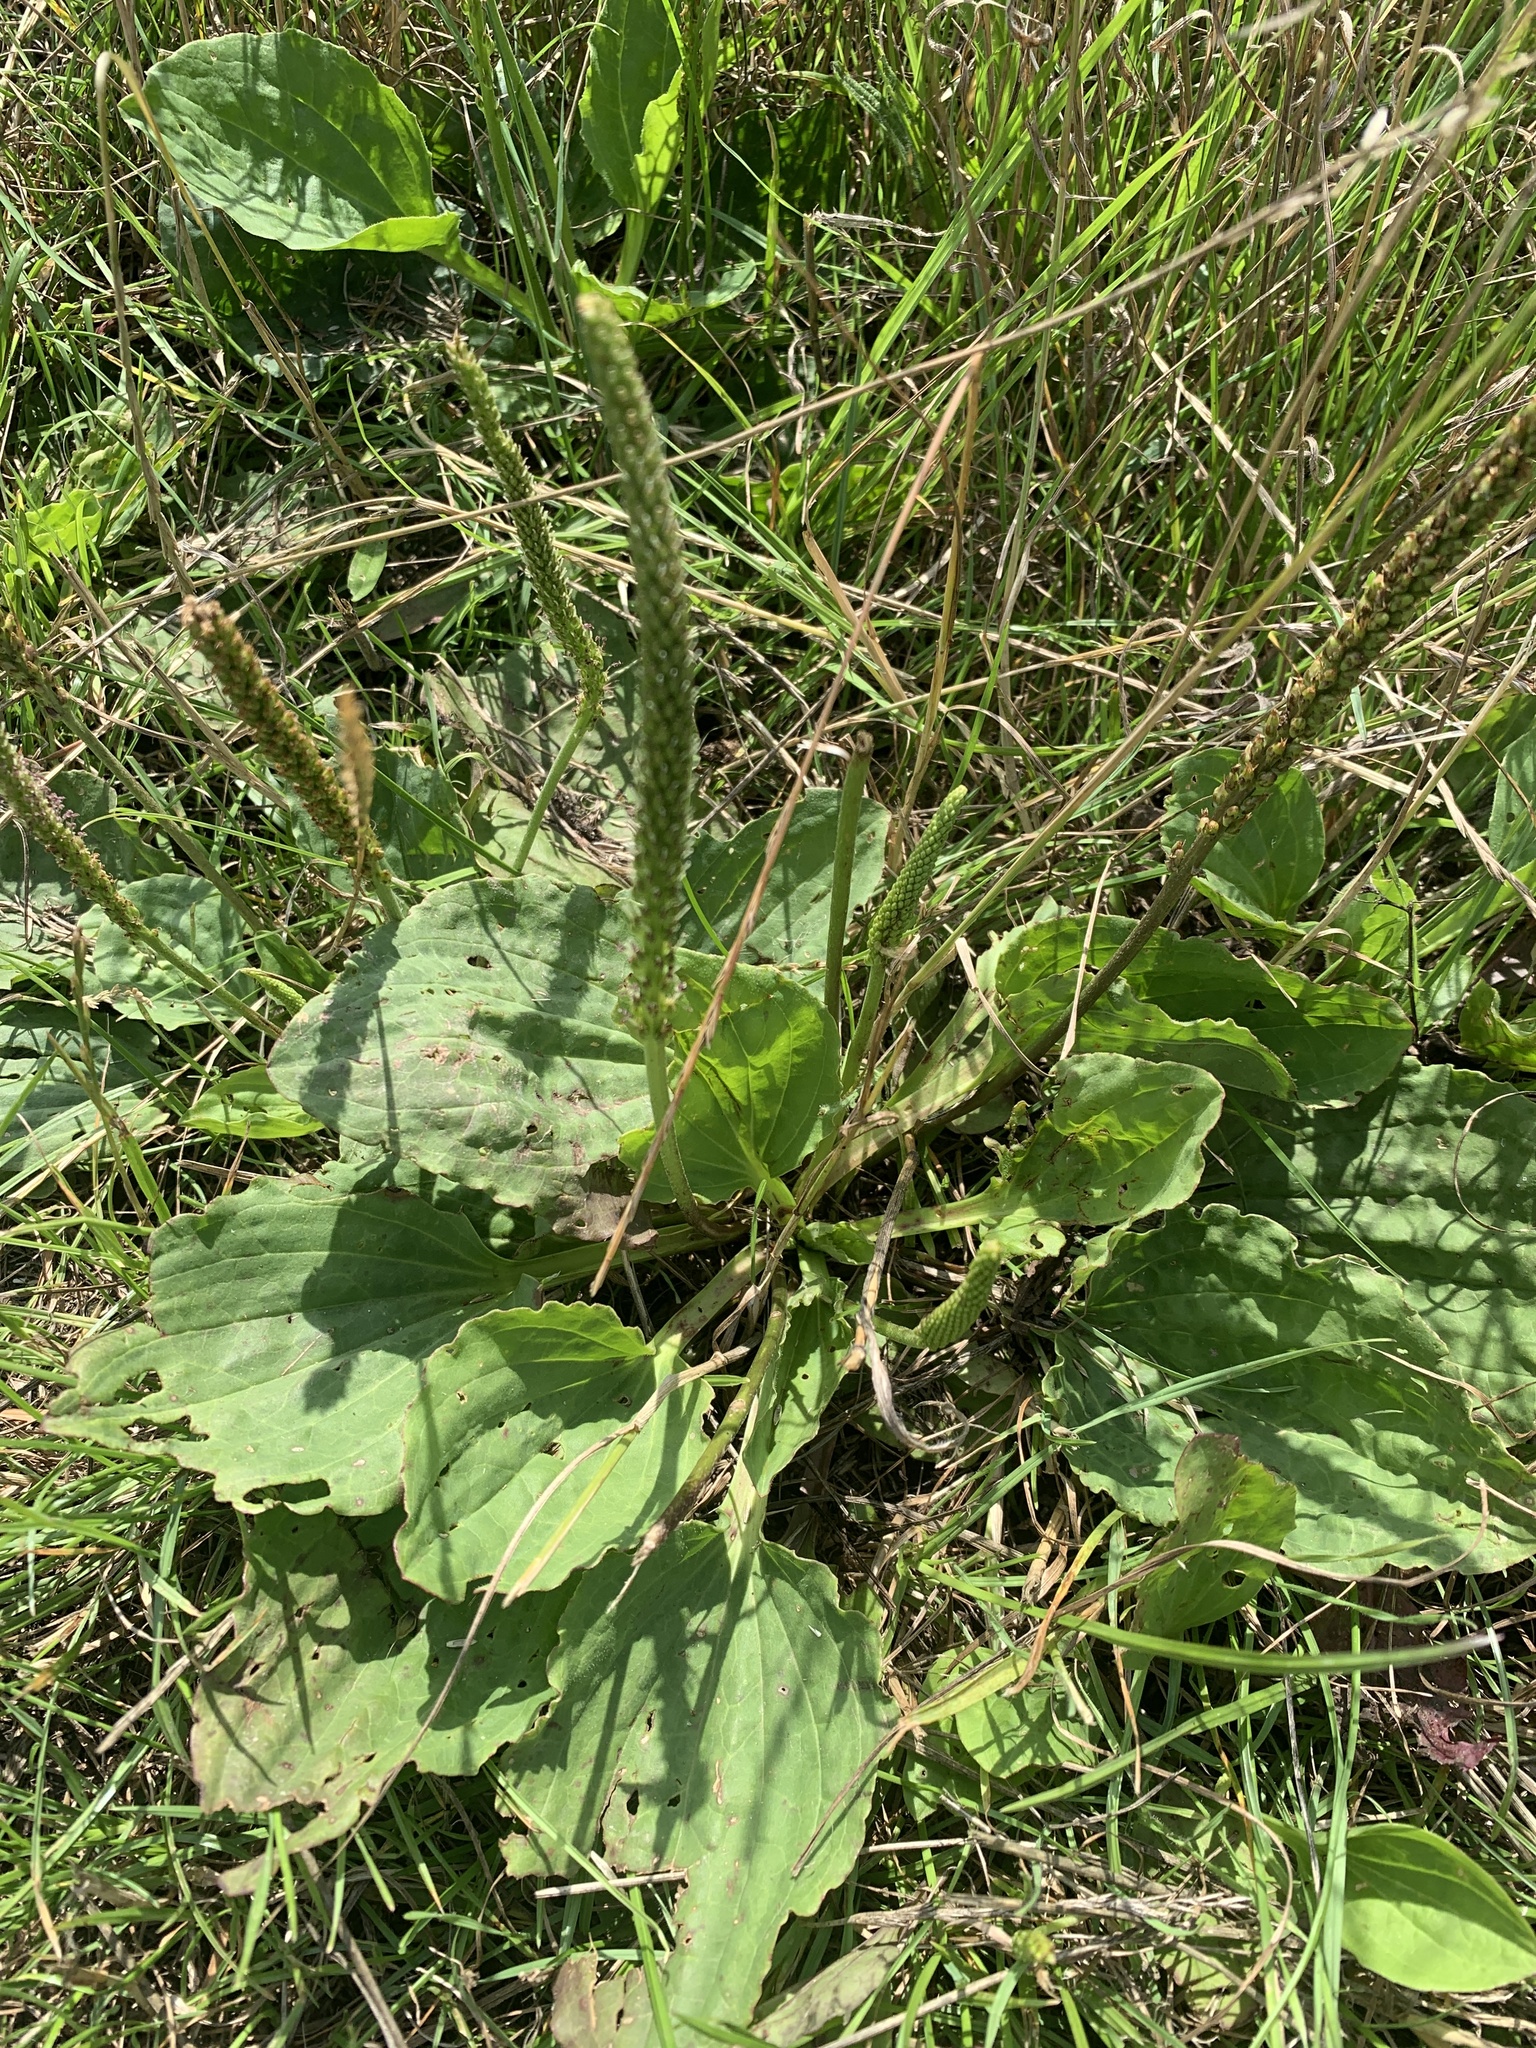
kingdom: Plantae
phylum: Tracheophyta
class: Magnoliopsida
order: Lamiales
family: Plantaginaceae
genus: Plantago
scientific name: Plantago major
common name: Common plantain
